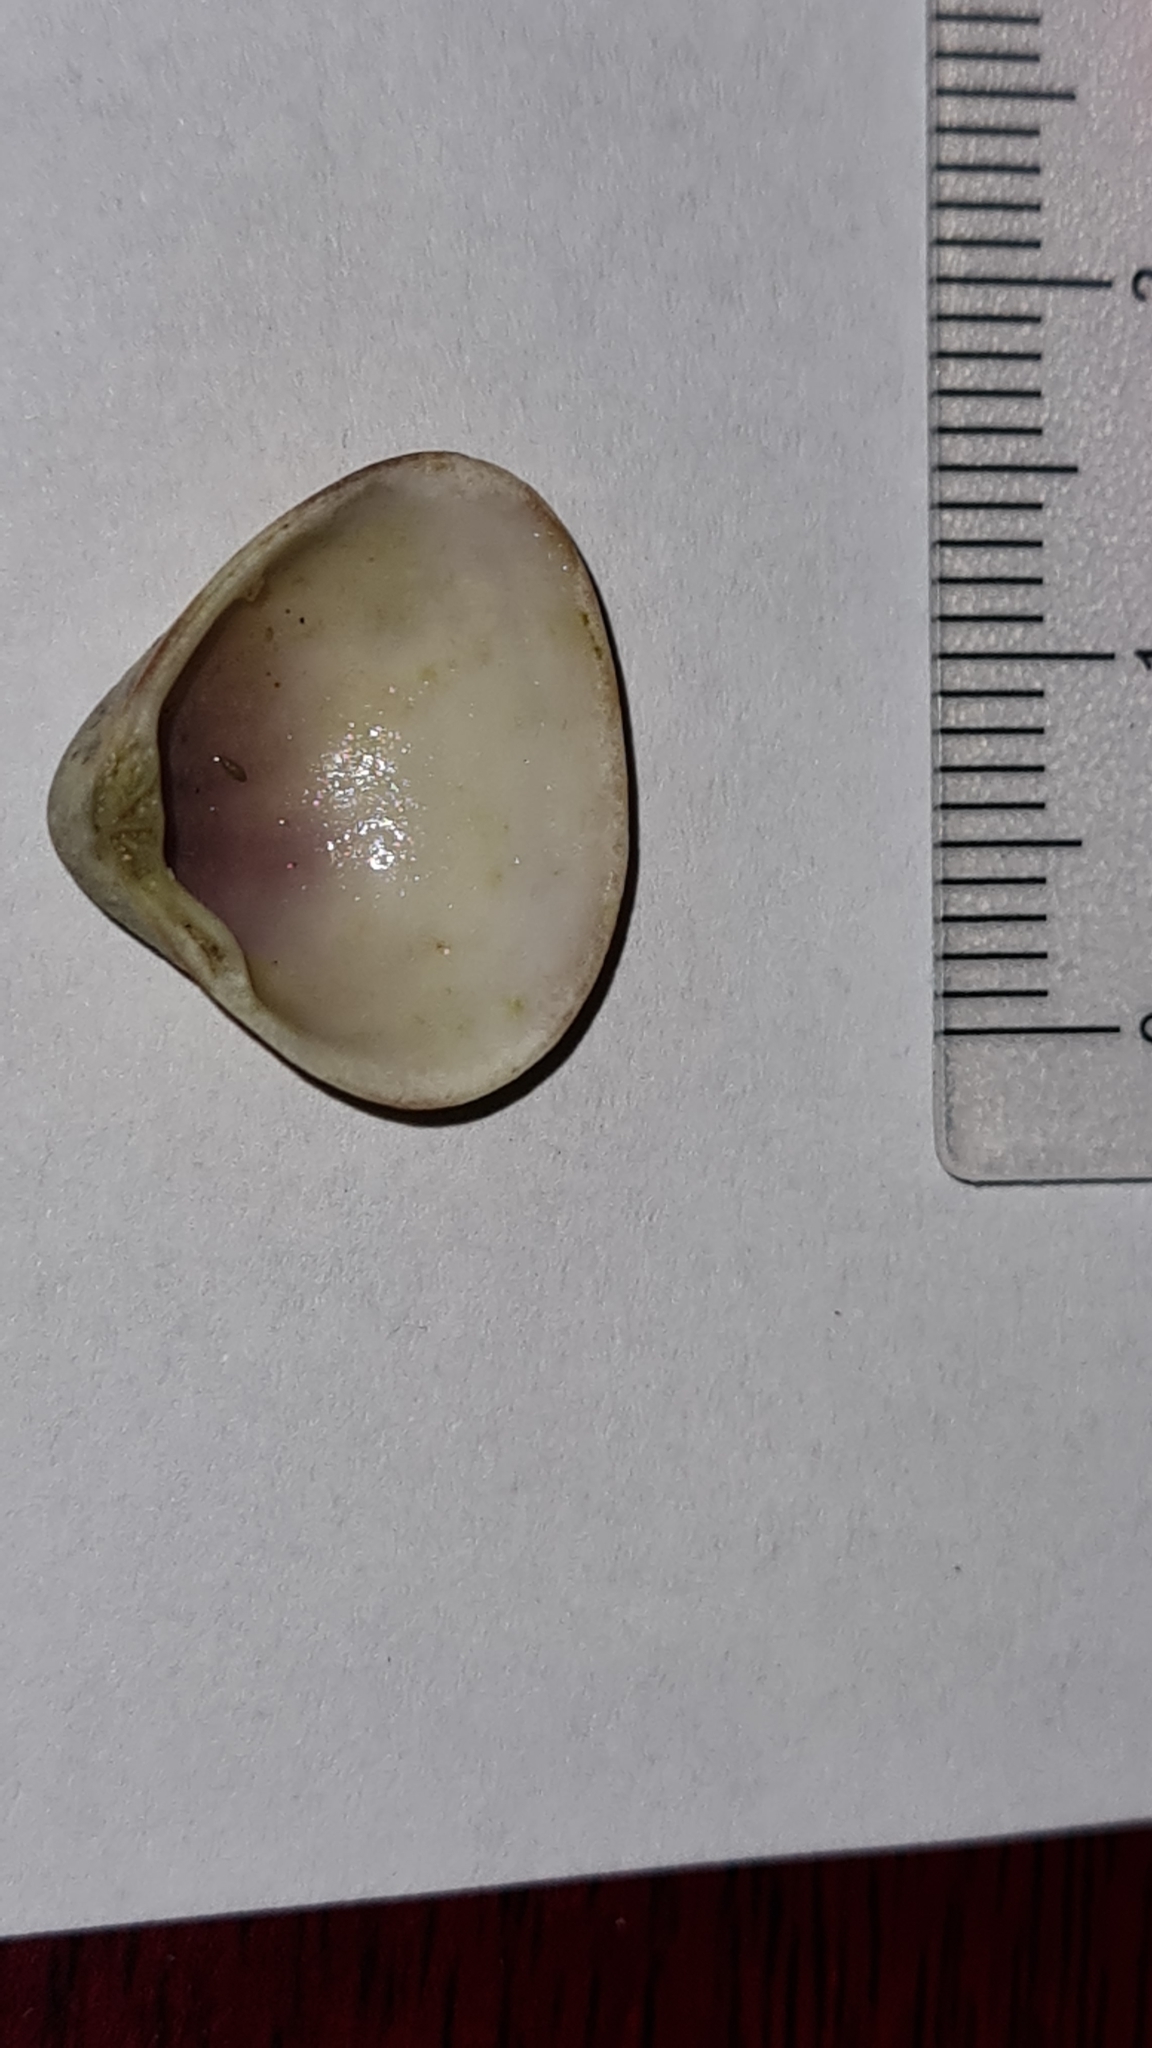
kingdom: Animalia
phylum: Mollusca
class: Bivalvia
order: Venerida
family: Veneridae
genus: Tivela
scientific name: Tivela mactroides
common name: Trigonal tivela
